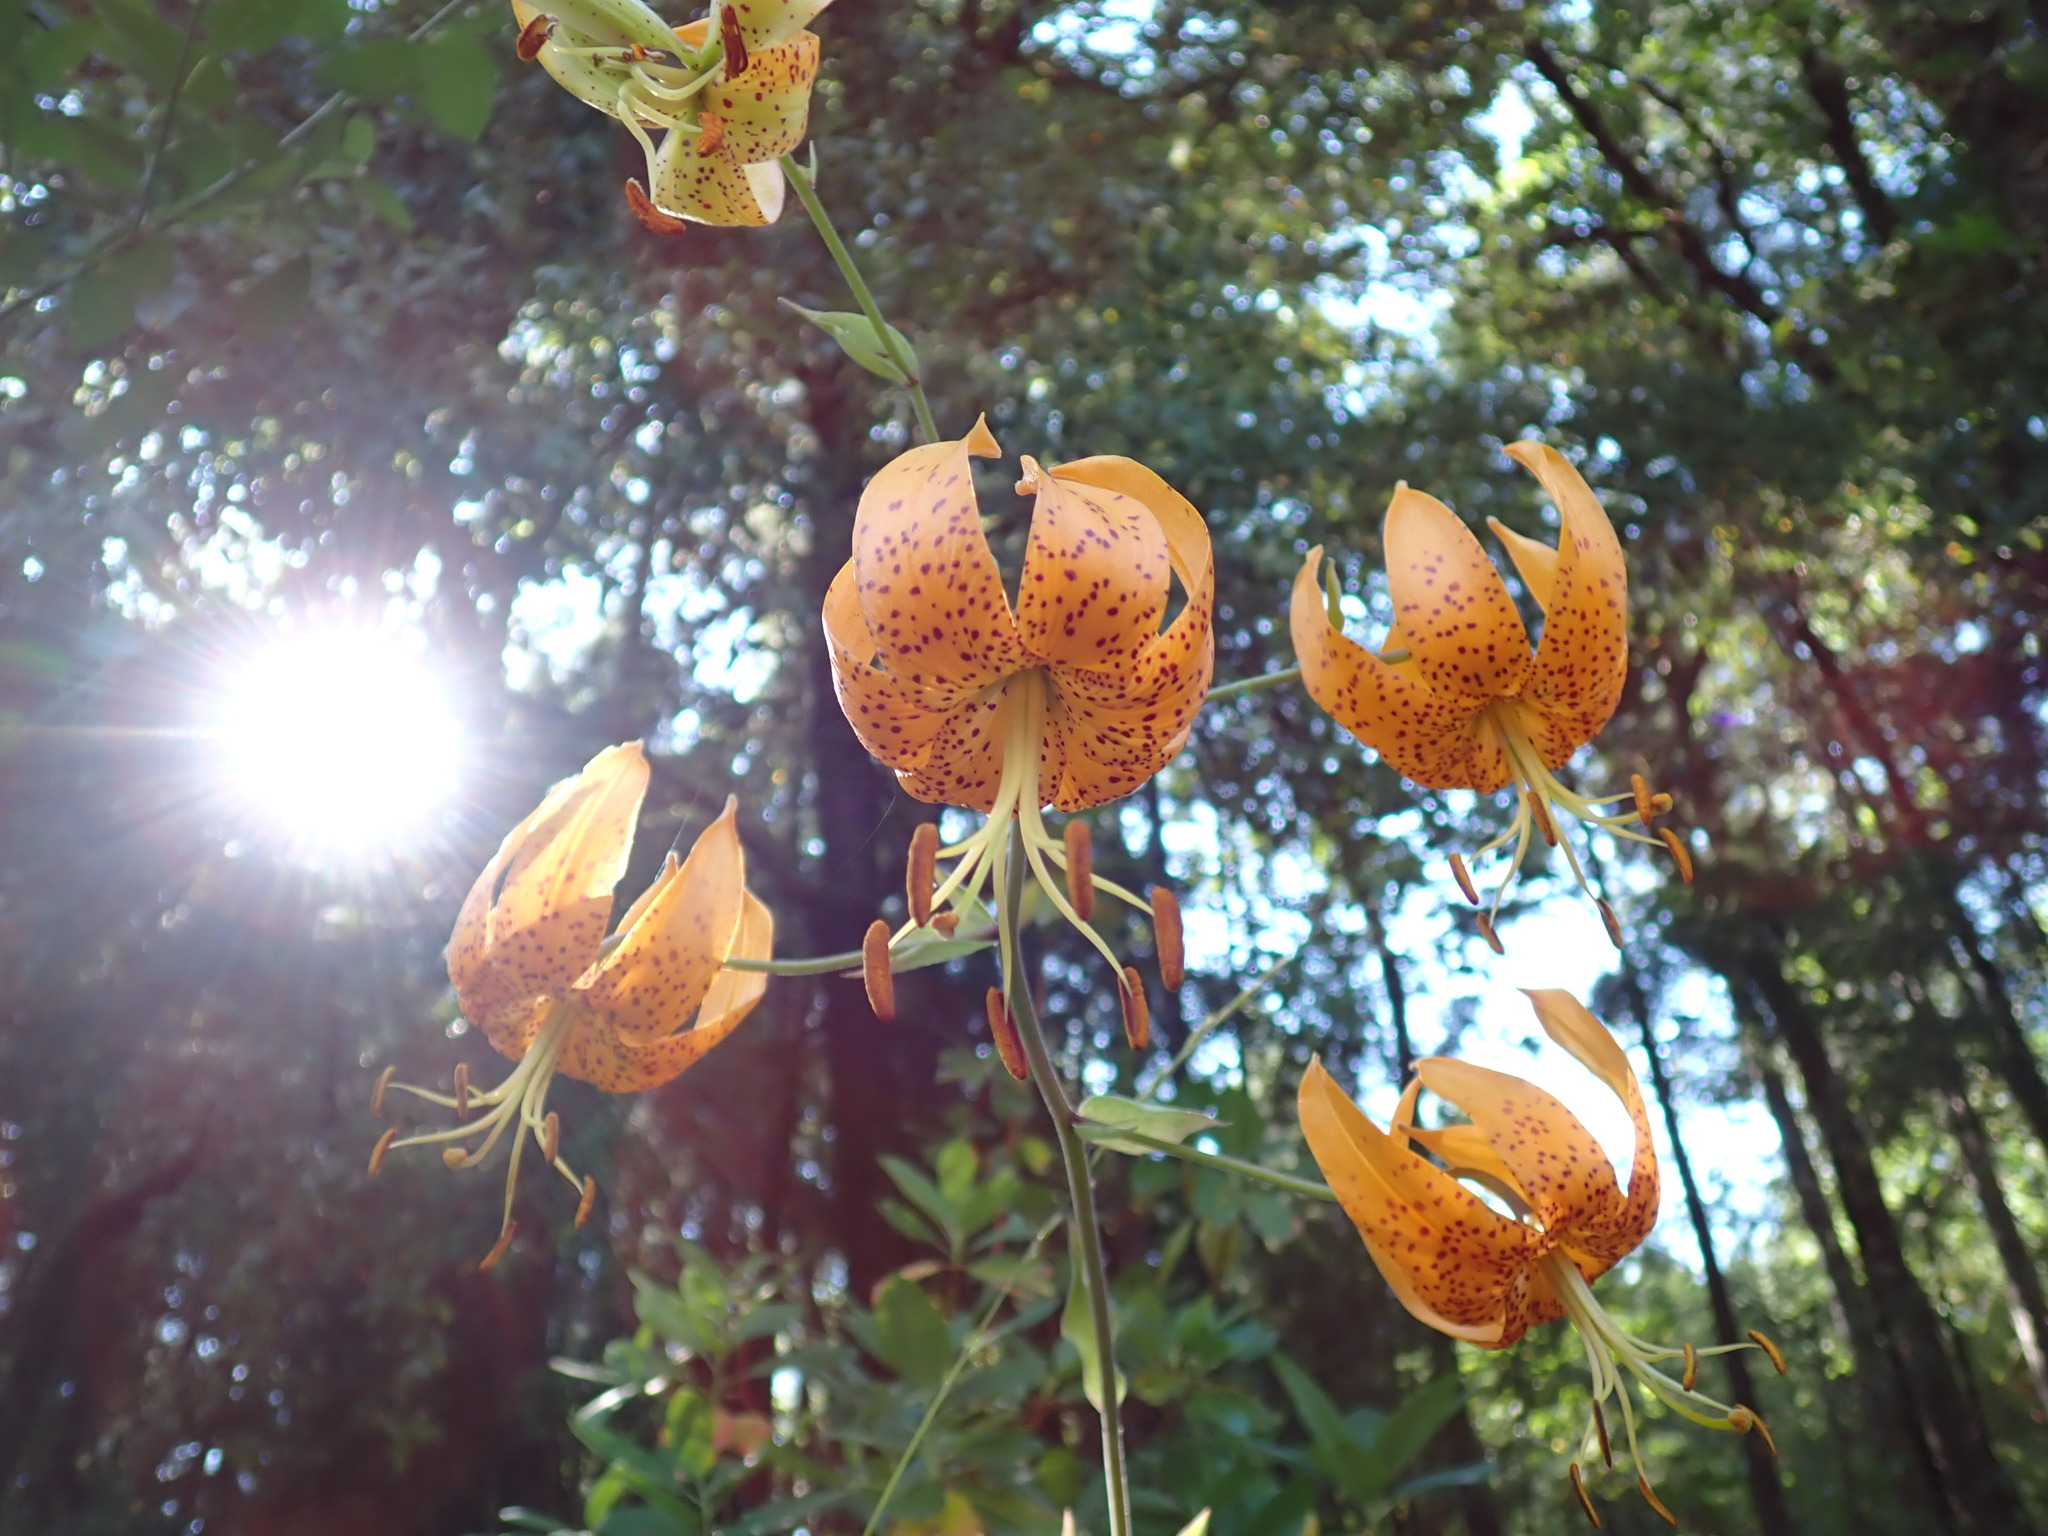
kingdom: Plantae
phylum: Tracheophyta
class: Liliopsida
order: Liliales
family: Liliaceae
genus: Lilium
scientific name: Lilium humboldtii
